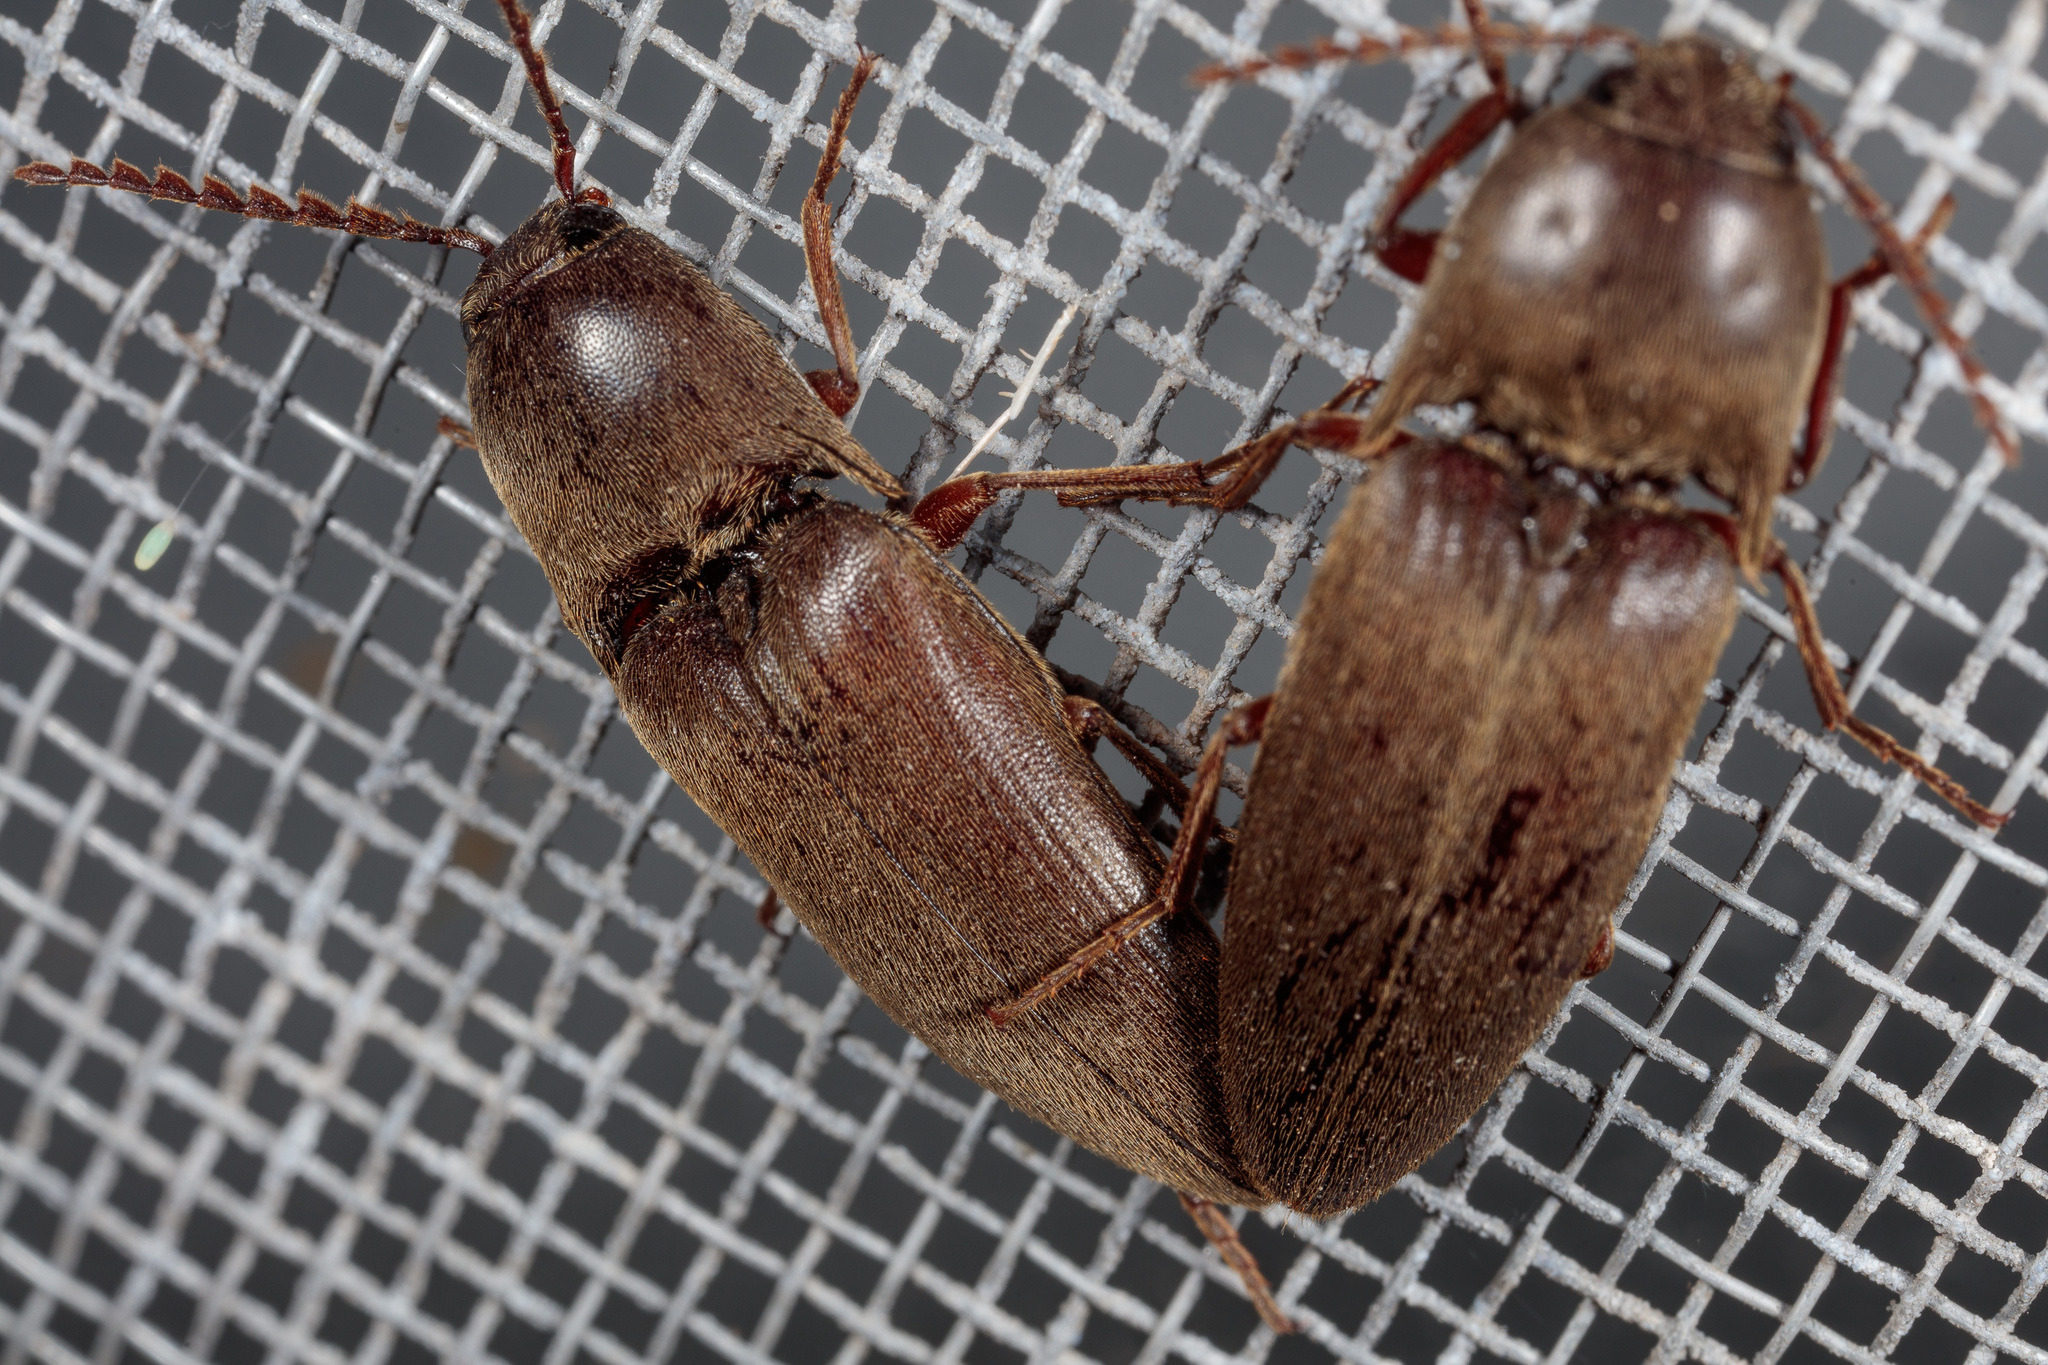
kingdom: Animalia
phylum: Arthropoda
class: Insecta
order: Coleoptera
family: Elateridae
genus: Diplostethus
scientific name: Diplostethus
